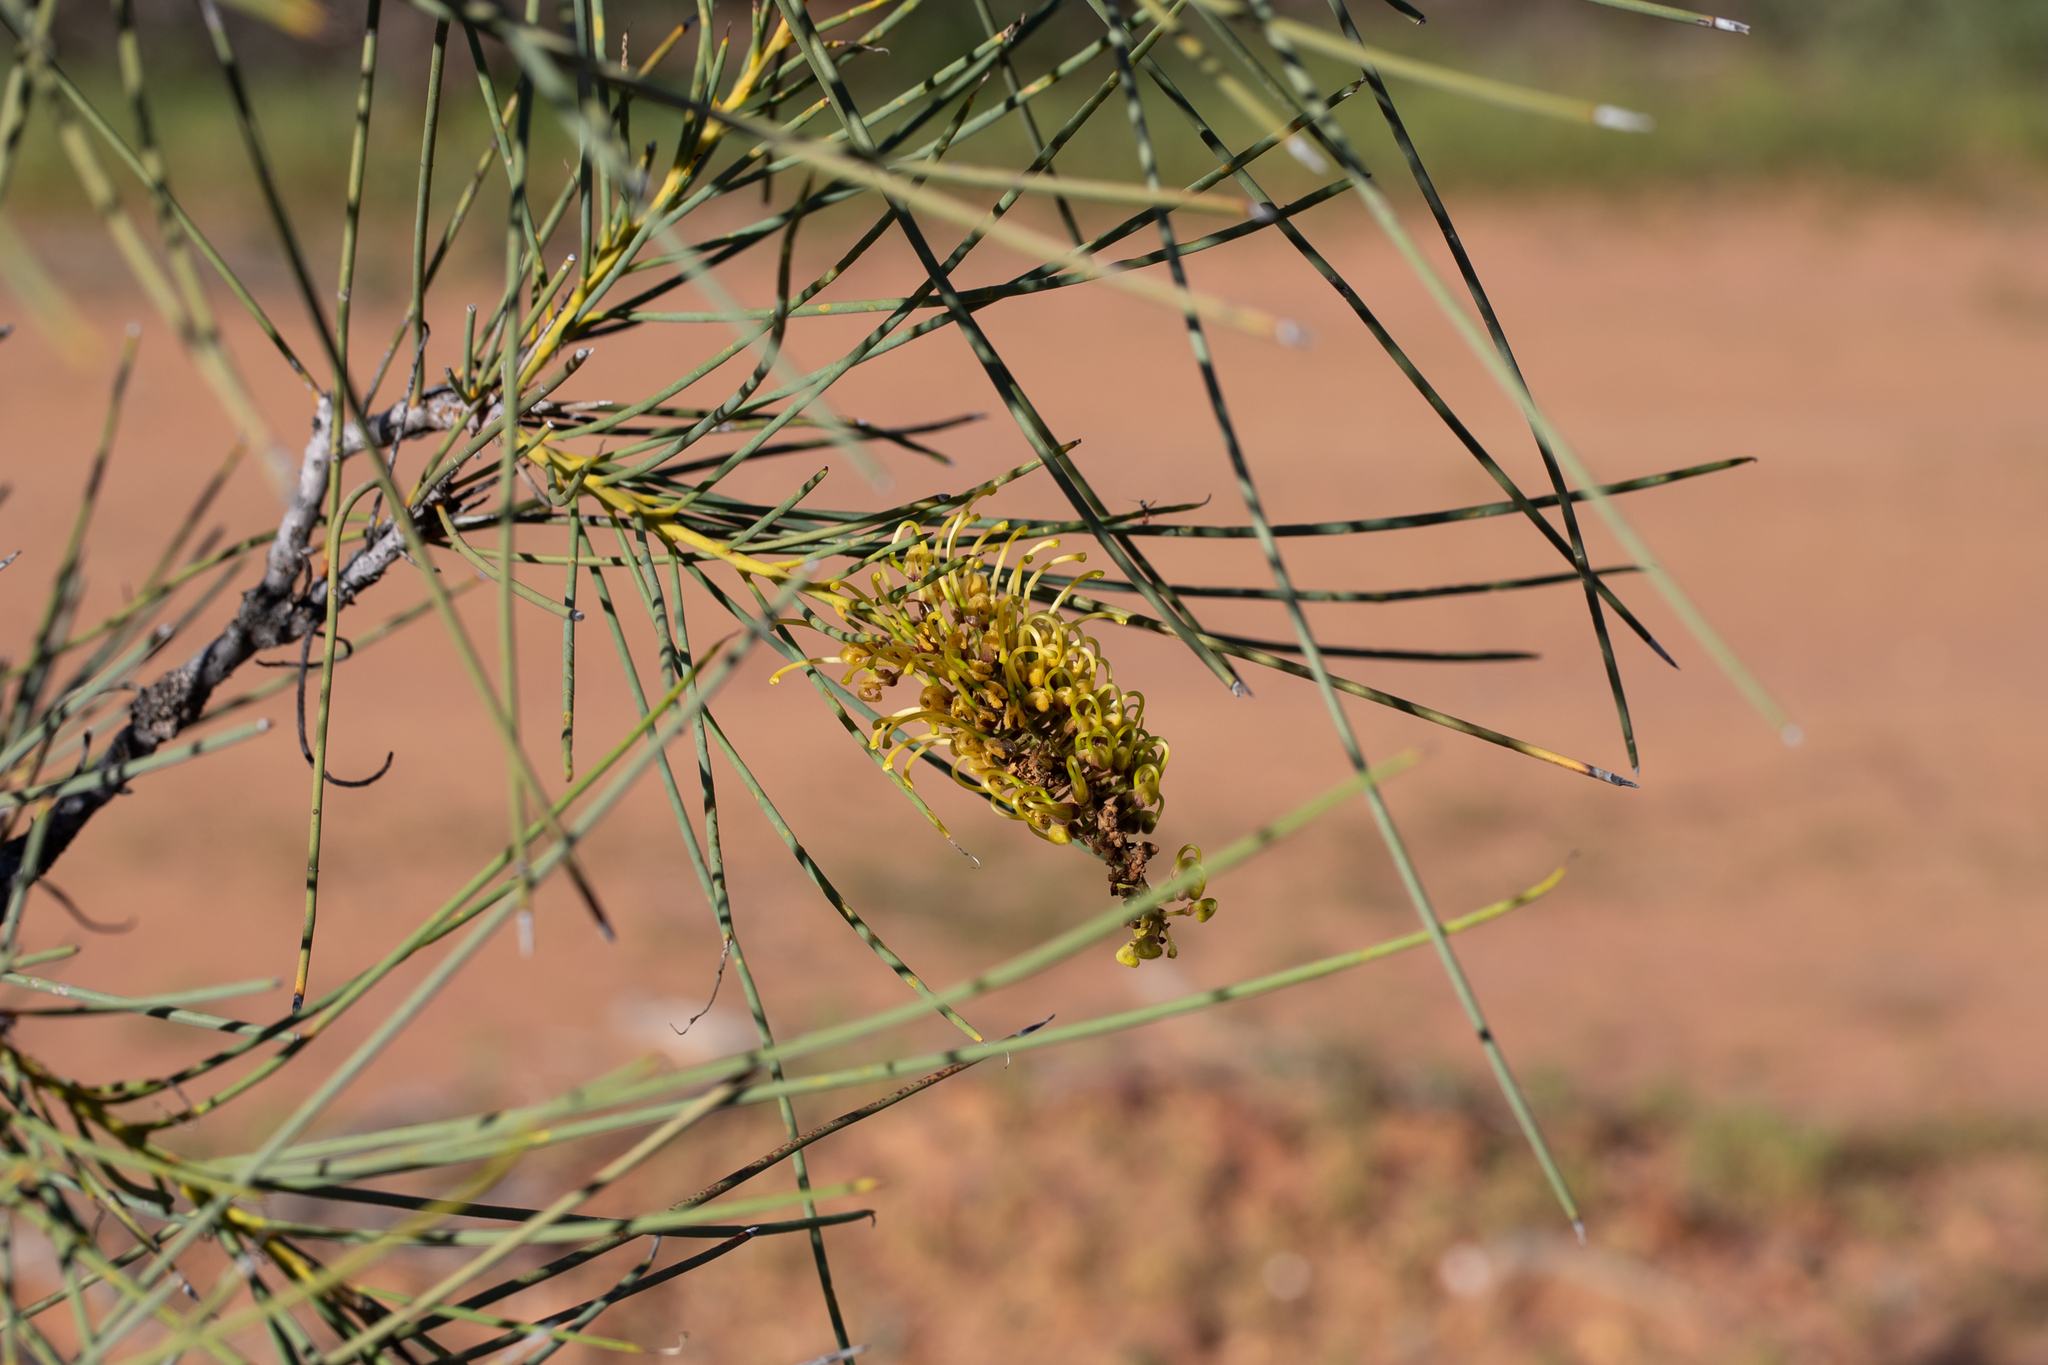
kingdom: Plantae
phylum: Tracheophyta
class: Magnoliopsida
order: Proteales
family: Proteaceae
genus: Hakea
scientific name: Hakea chordophylla
